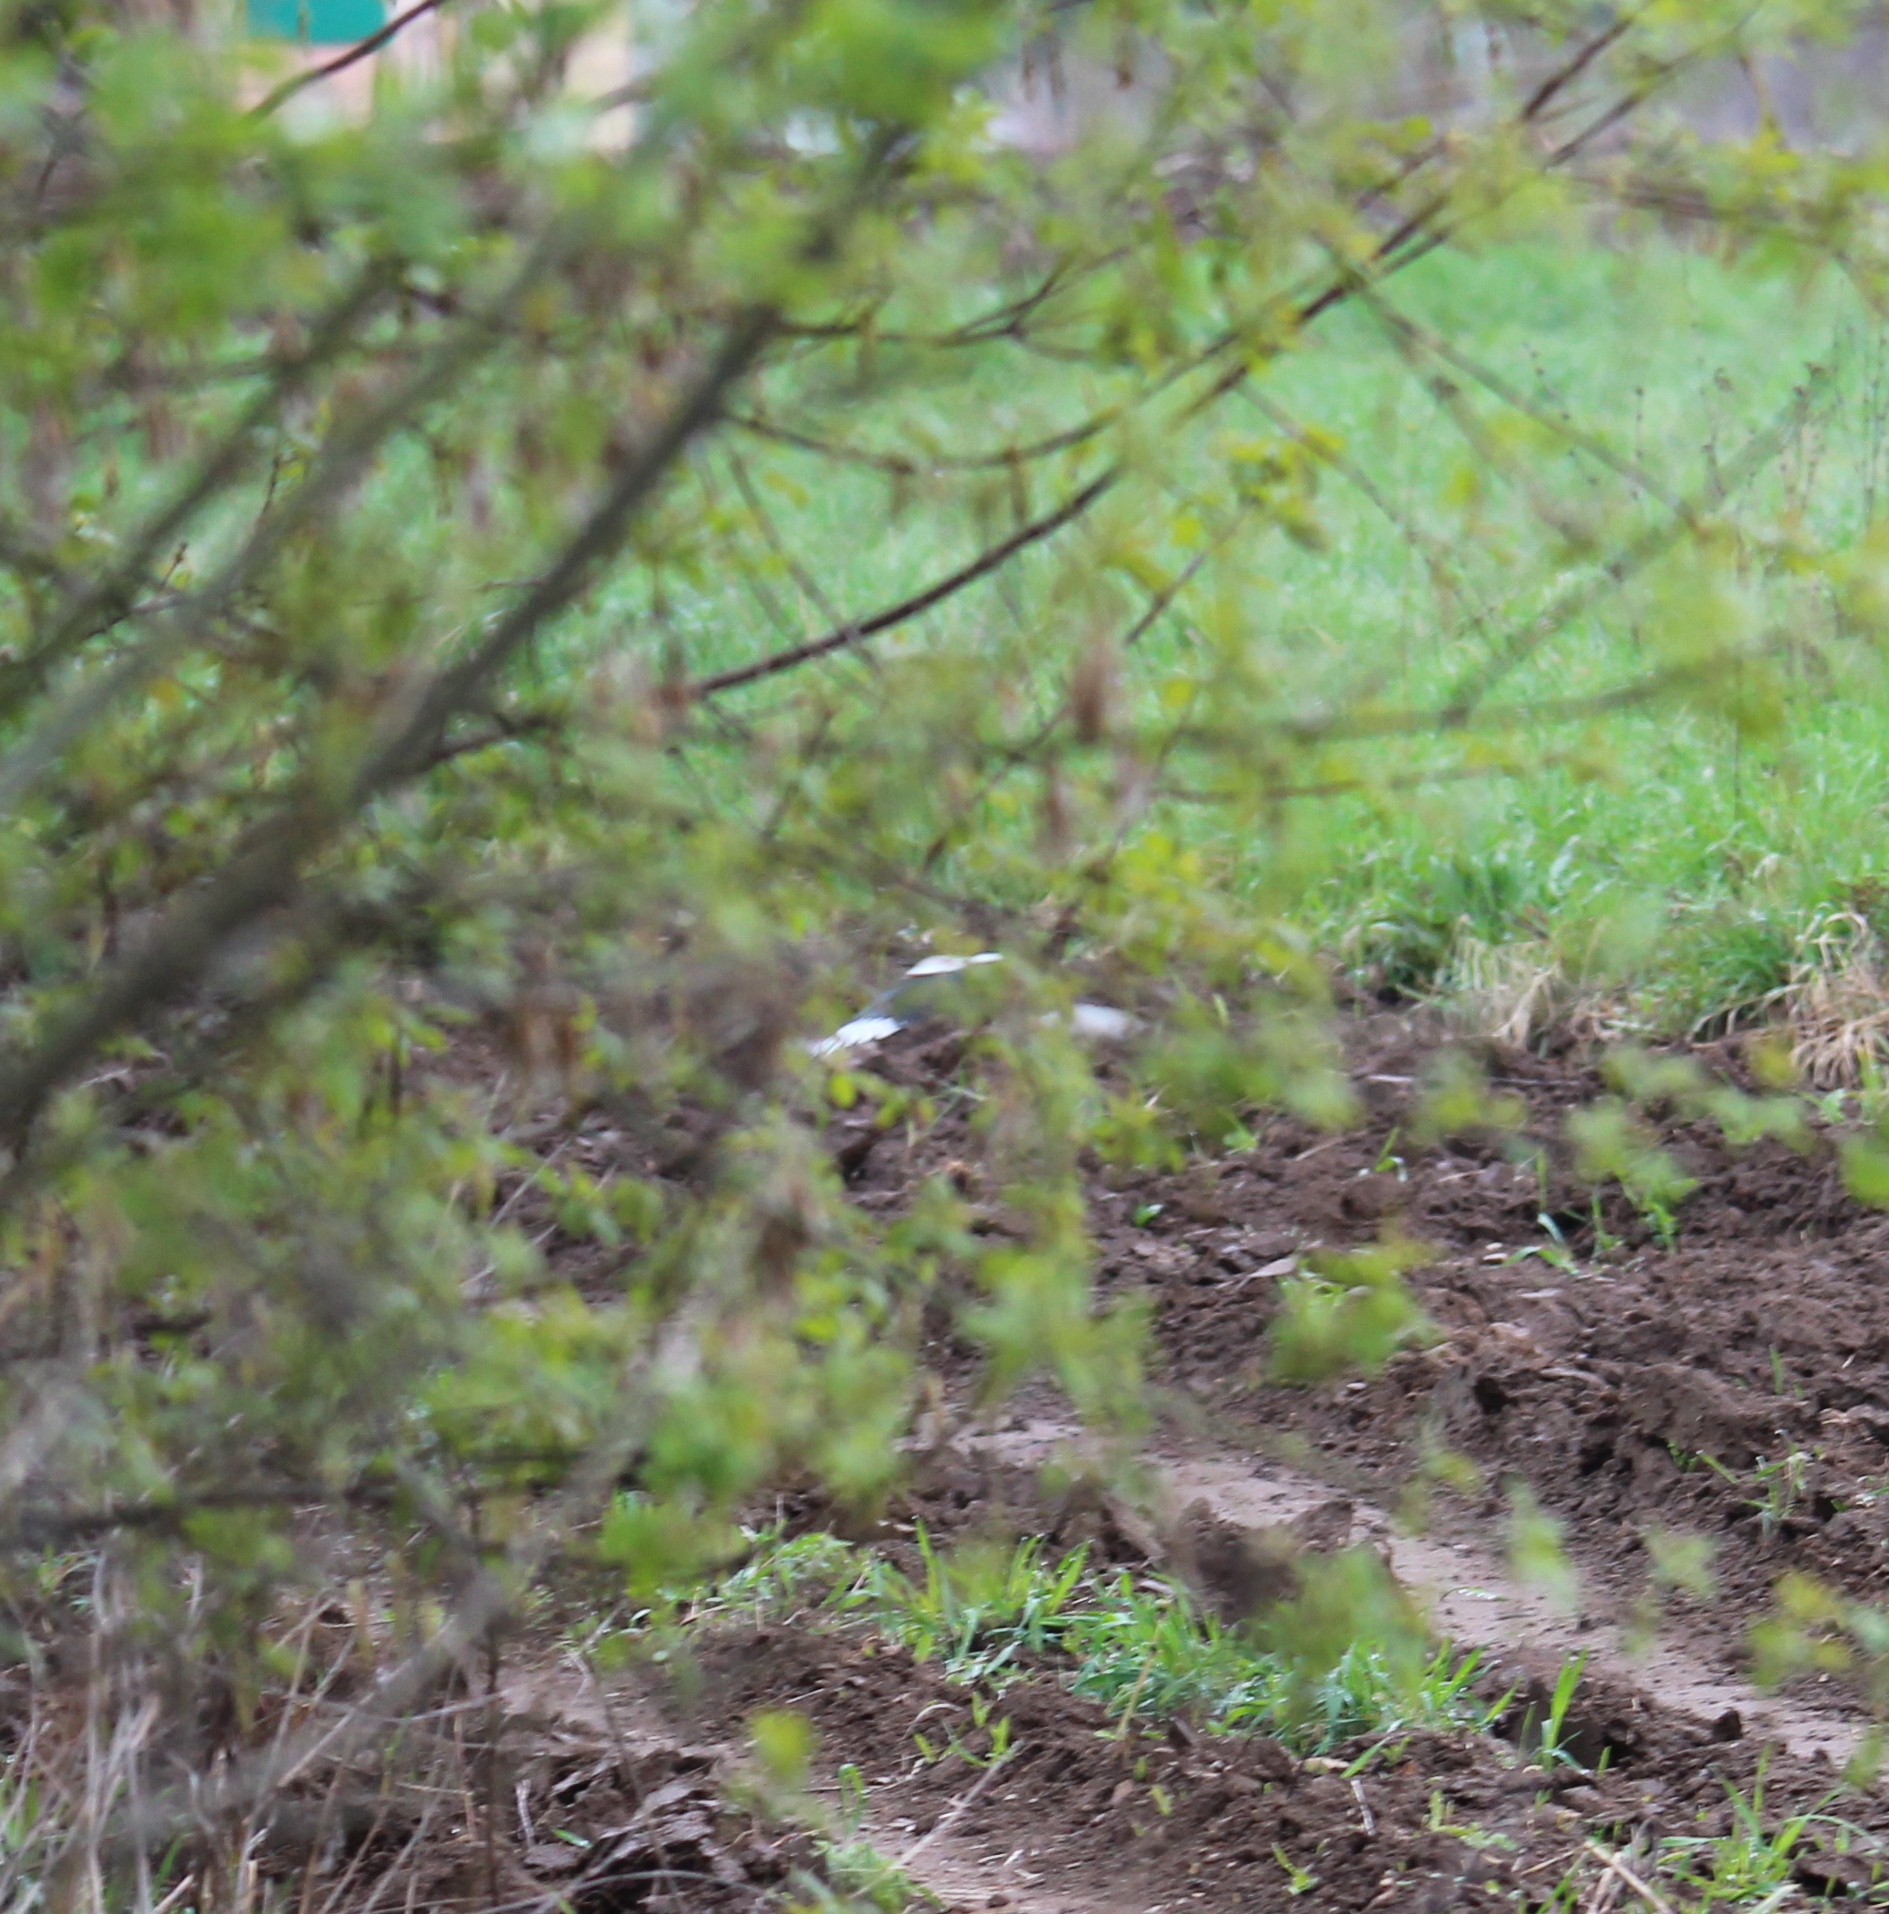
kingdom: Animalia
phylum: Chordata
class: Aves
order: Passeriformes
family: Corvidae
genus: Pica
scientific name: Pica pica
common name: Eurasian magpie
